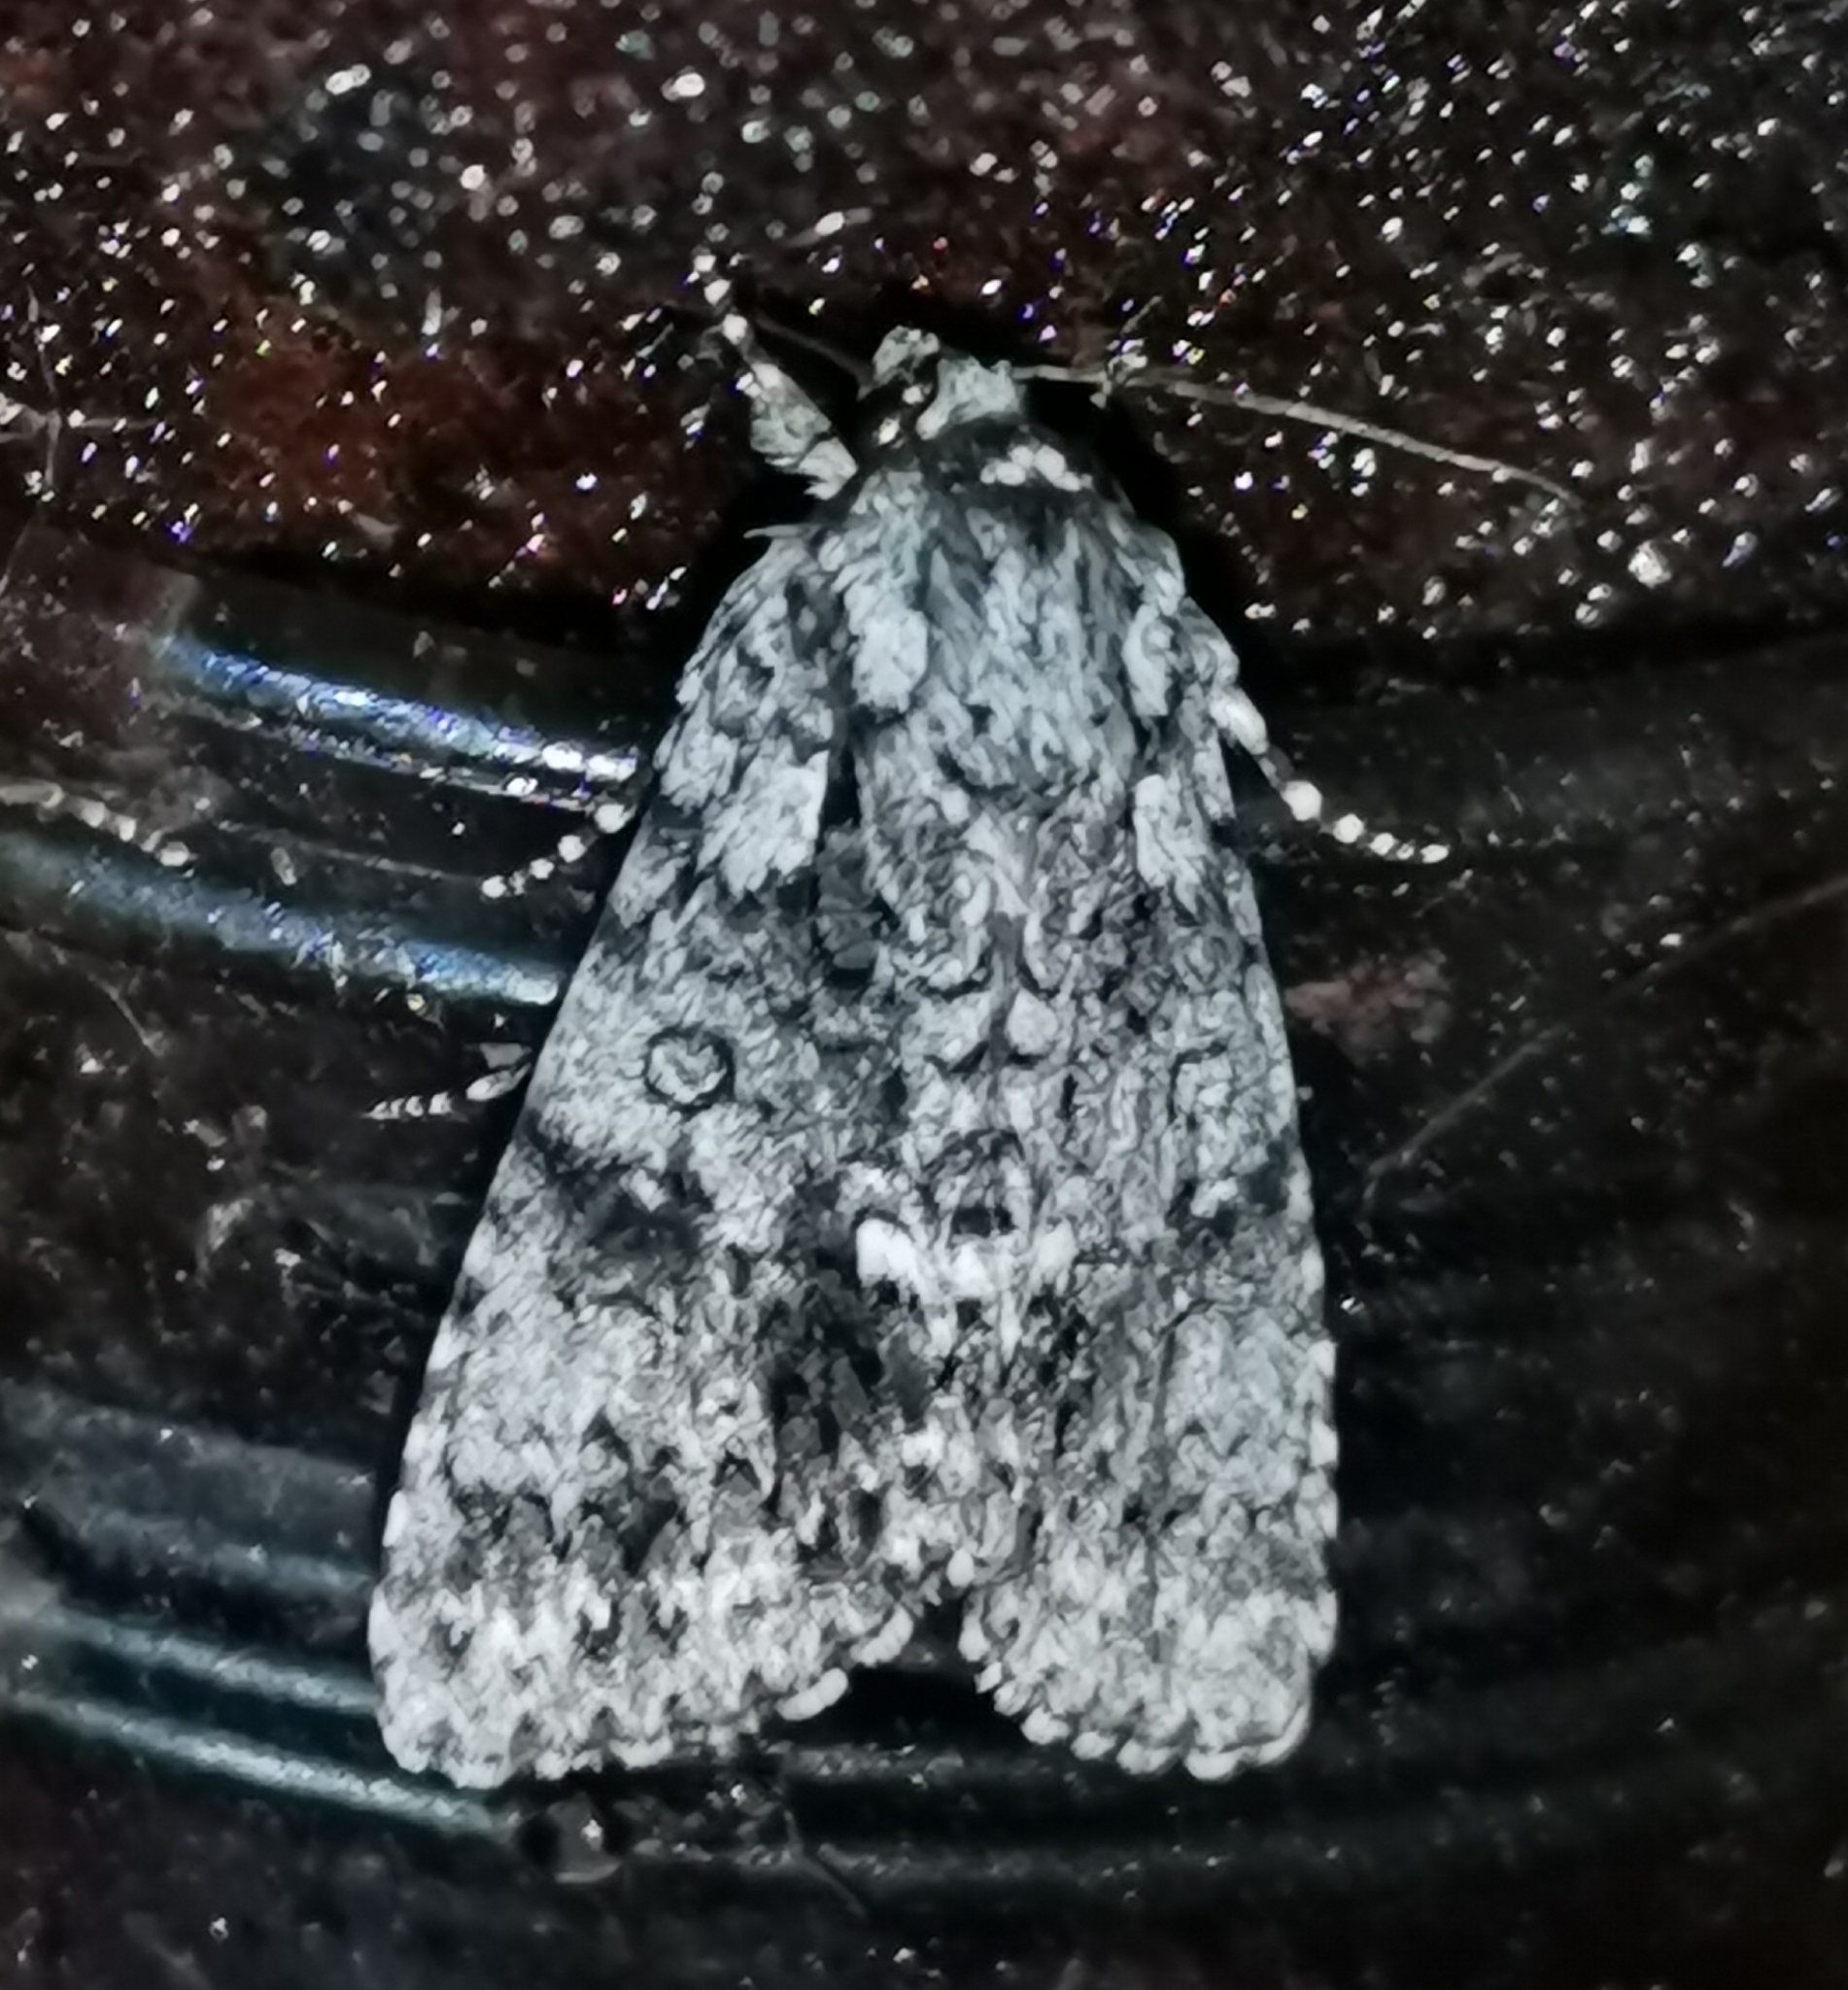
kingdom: Animalia
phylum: Arthropoda
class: Insecta
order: Lepidoptera
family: Noctuidae
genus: Acronicta
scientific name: Acronicta rumicis
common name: Knot grass
